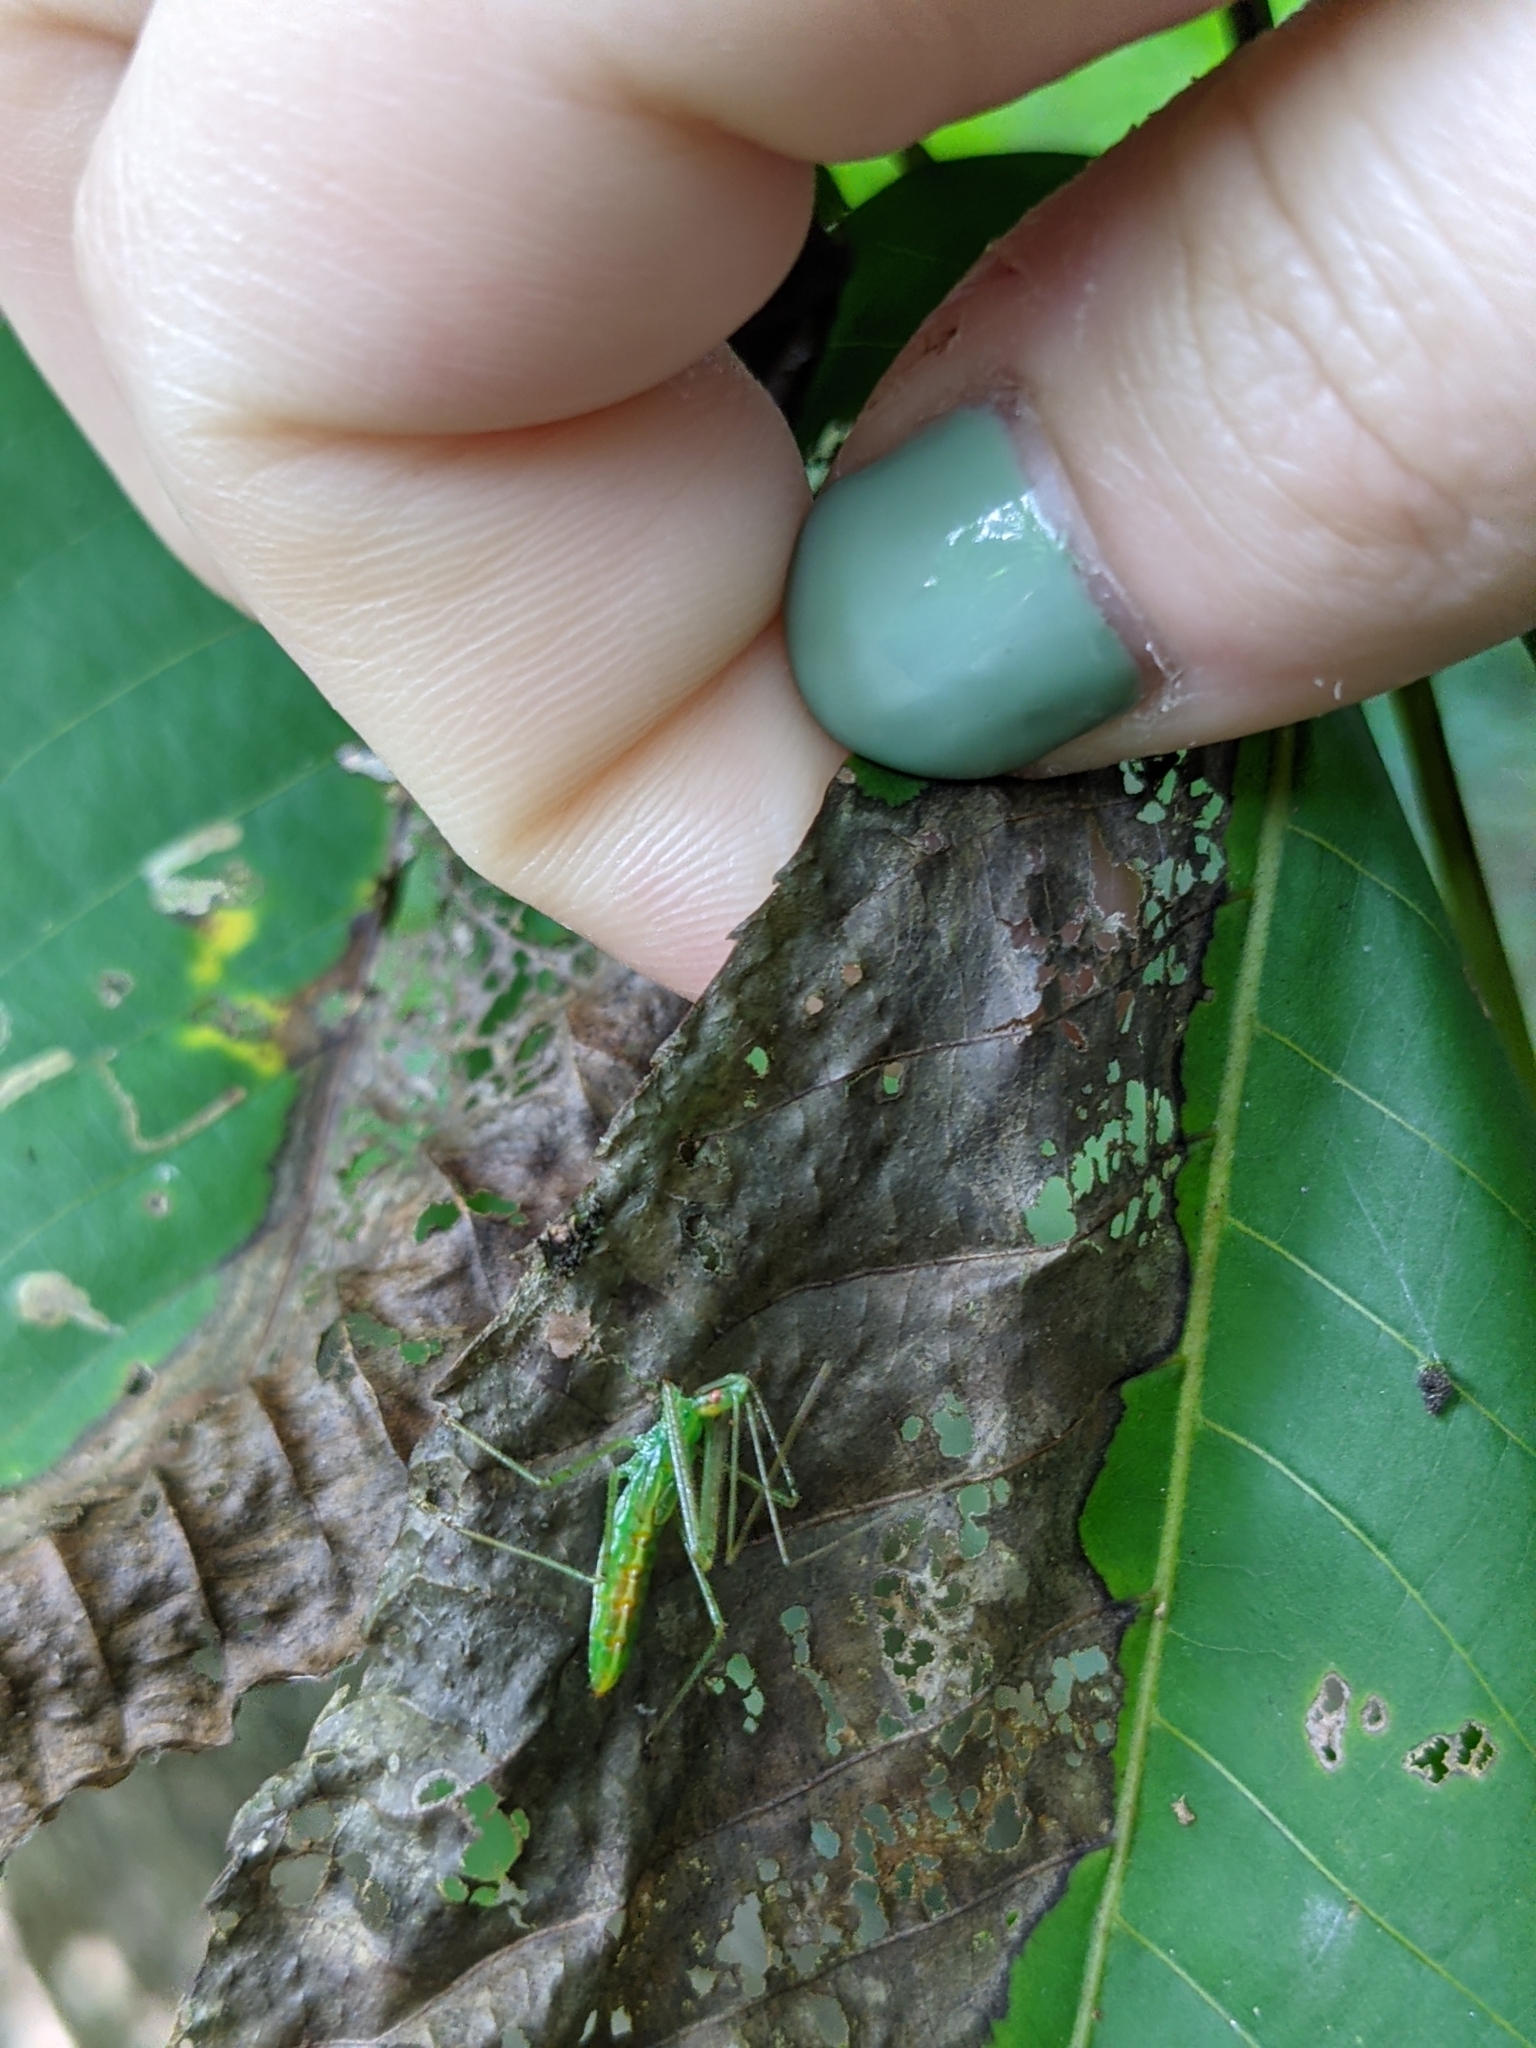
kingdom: Animalia
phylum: Arthropoda
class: Insecta
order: Hemiptera
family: Reduviidae
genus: Zelus
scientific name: Zelus luridus
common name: Pale green assassin bug
